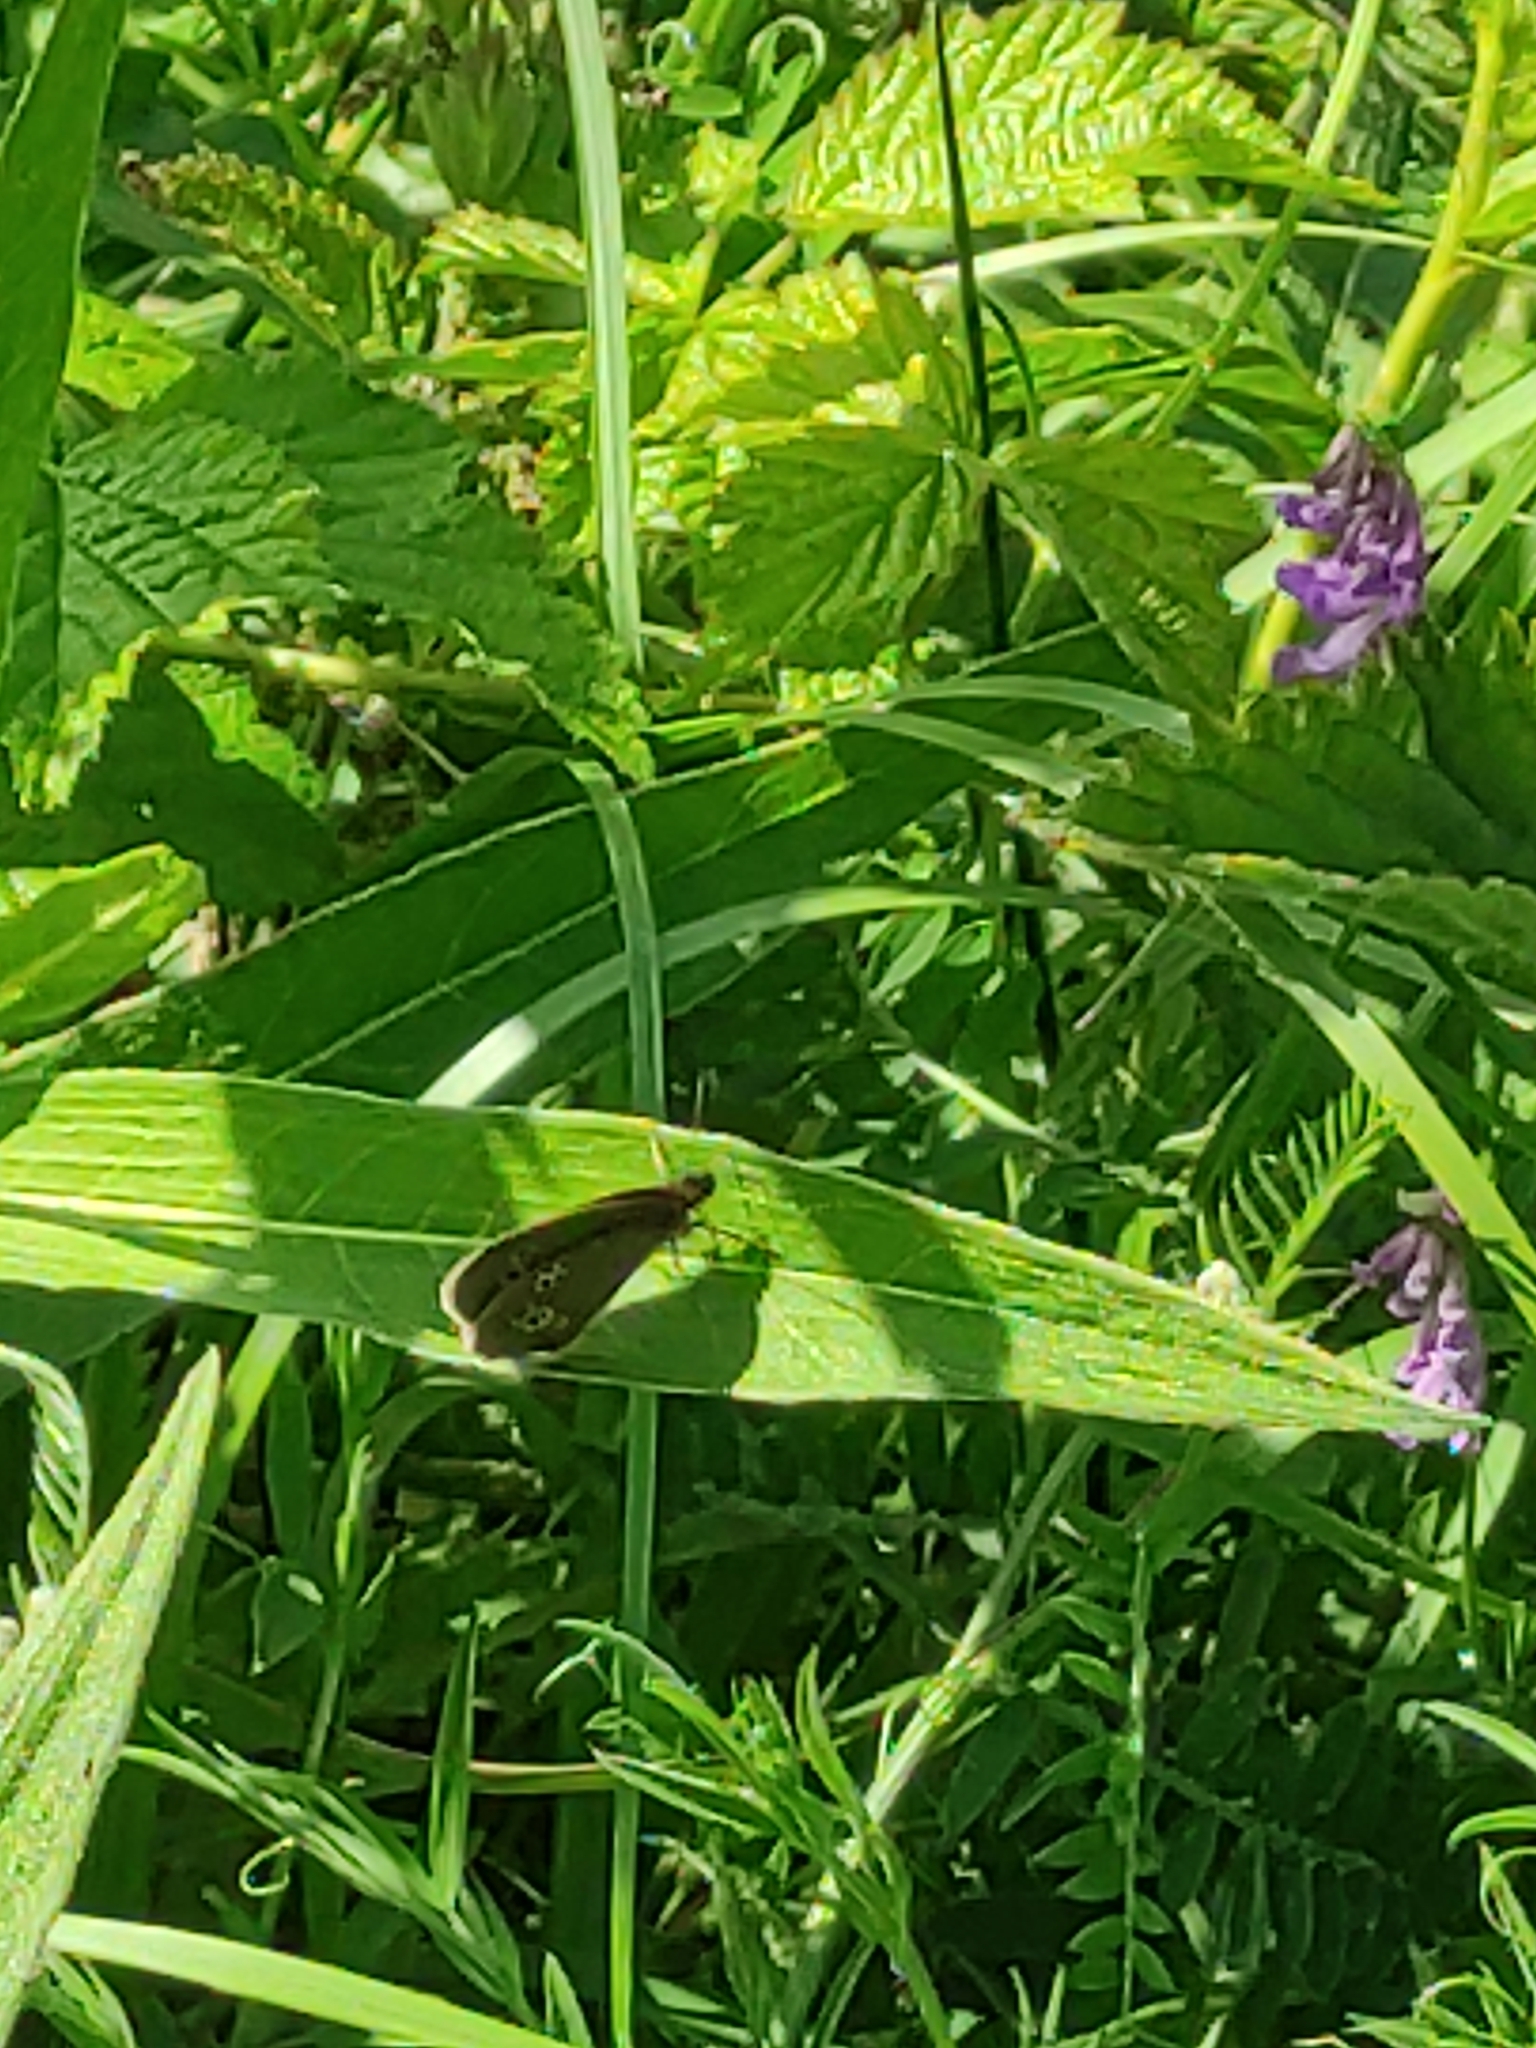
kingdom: Animalia
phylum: Arthropoda
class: Insecta
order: Lepidoptera
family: Nymphalidae
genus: Aphantopus
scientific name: Aphantopus hyperantus
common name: Ringlet
